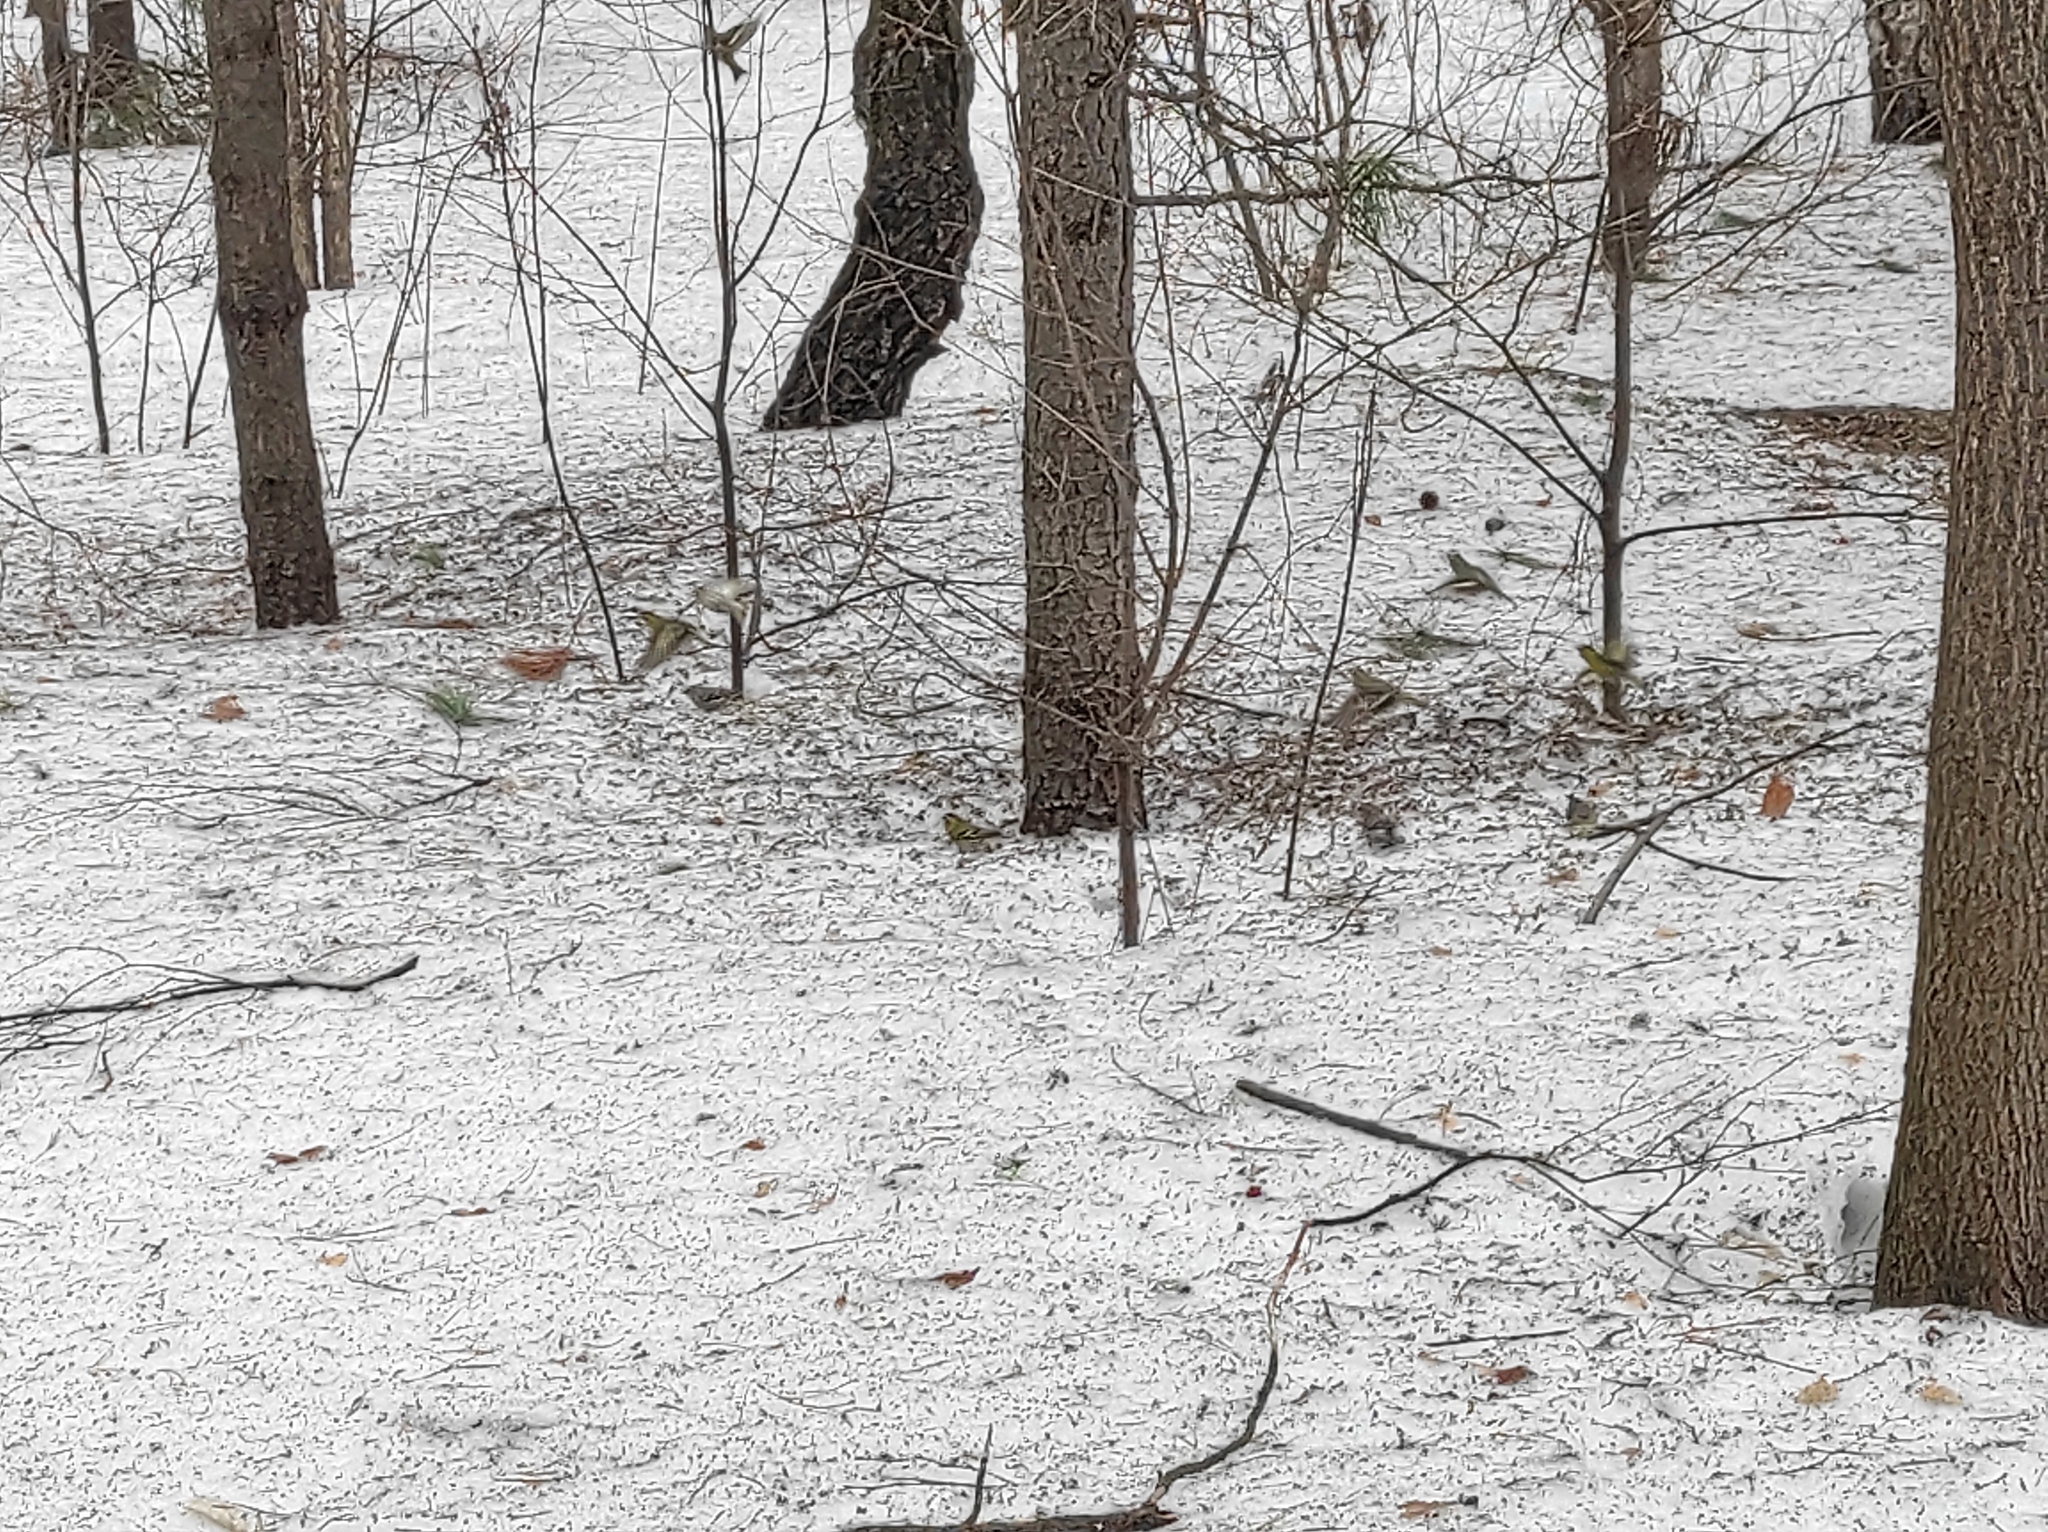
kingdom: Animalia
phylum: Chordata
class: Aves
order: Passeriformes
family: Fringillidae
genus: Spinus
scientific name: Spinus spinus
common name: Eurasian siskin
